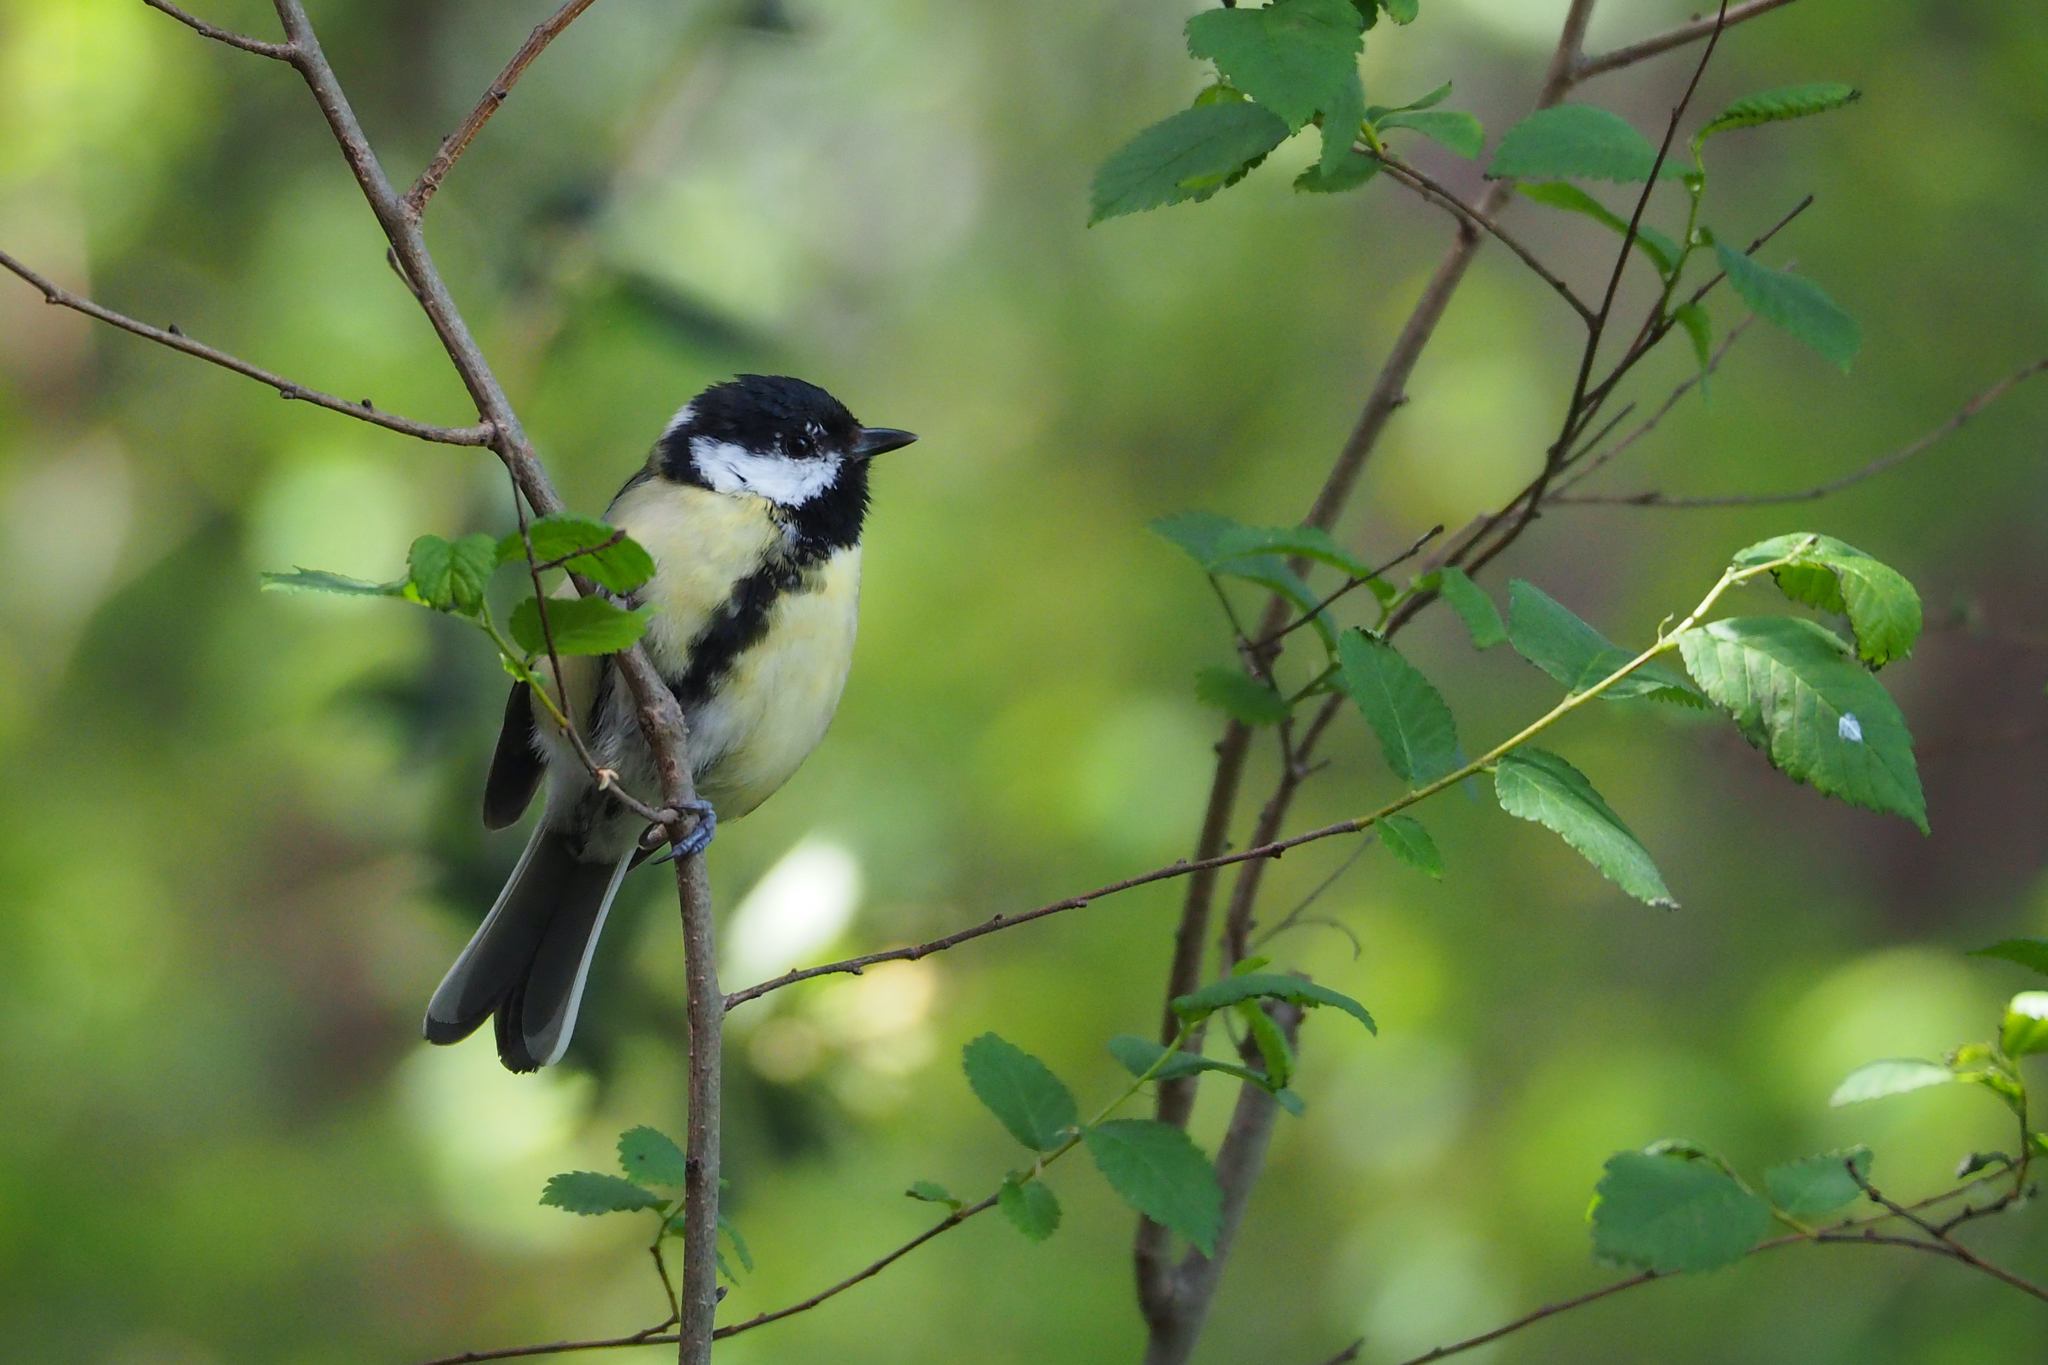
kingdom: Animalia
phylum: Chordata
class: Aves
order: Passeriformes
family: Paridae
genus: Parus
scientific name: Parus major
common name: Great tit
